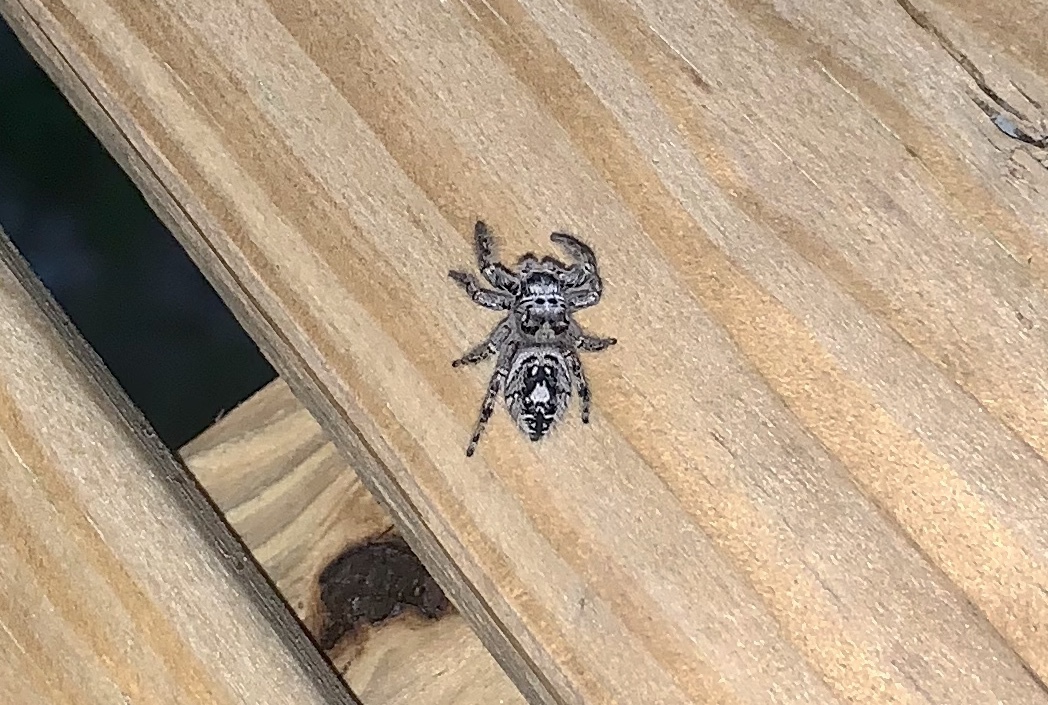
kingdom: Animalia
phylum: Arthropoda
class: Arachnida
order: Araneae
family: Salticidae
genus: Phidippus
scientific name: Phidippus putnami
